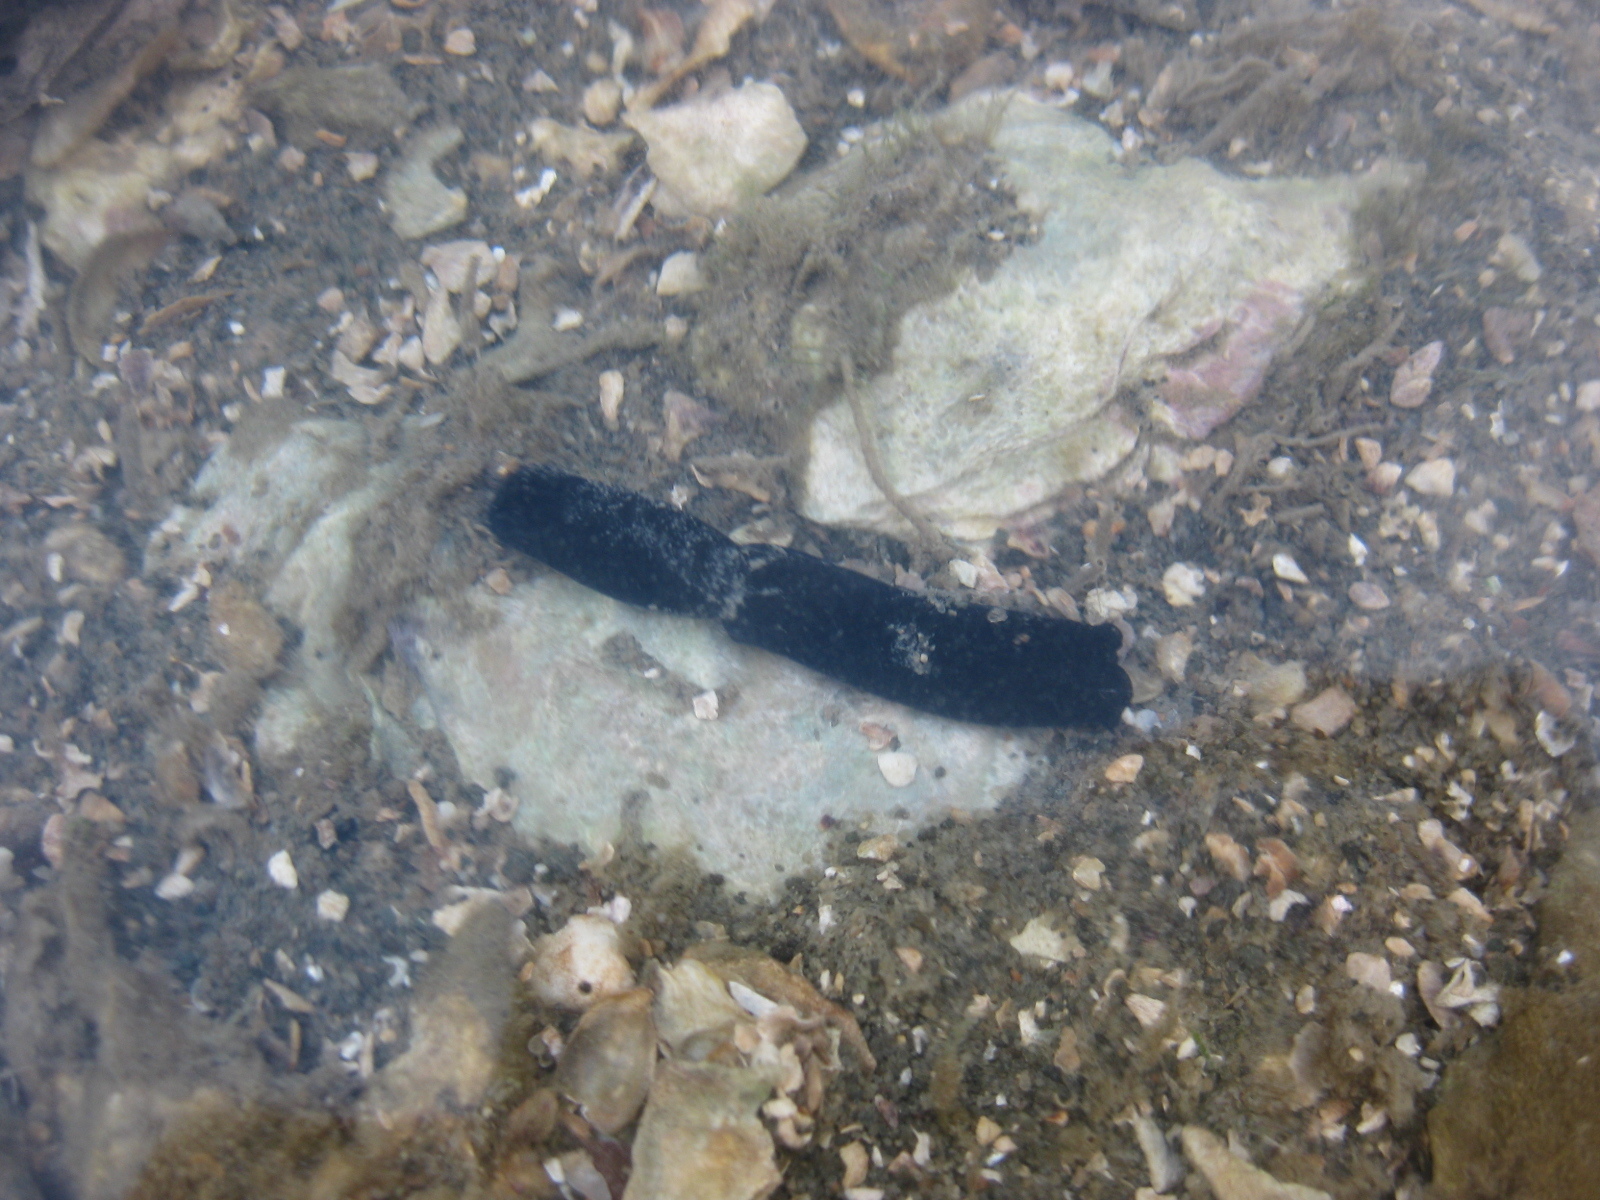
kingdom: Animalia
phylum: Mollusca
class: Gastropoda
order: Cephalaspidea
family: Aglajidae
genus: Melanochlamys
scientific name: Melanochlamys cylindrica
